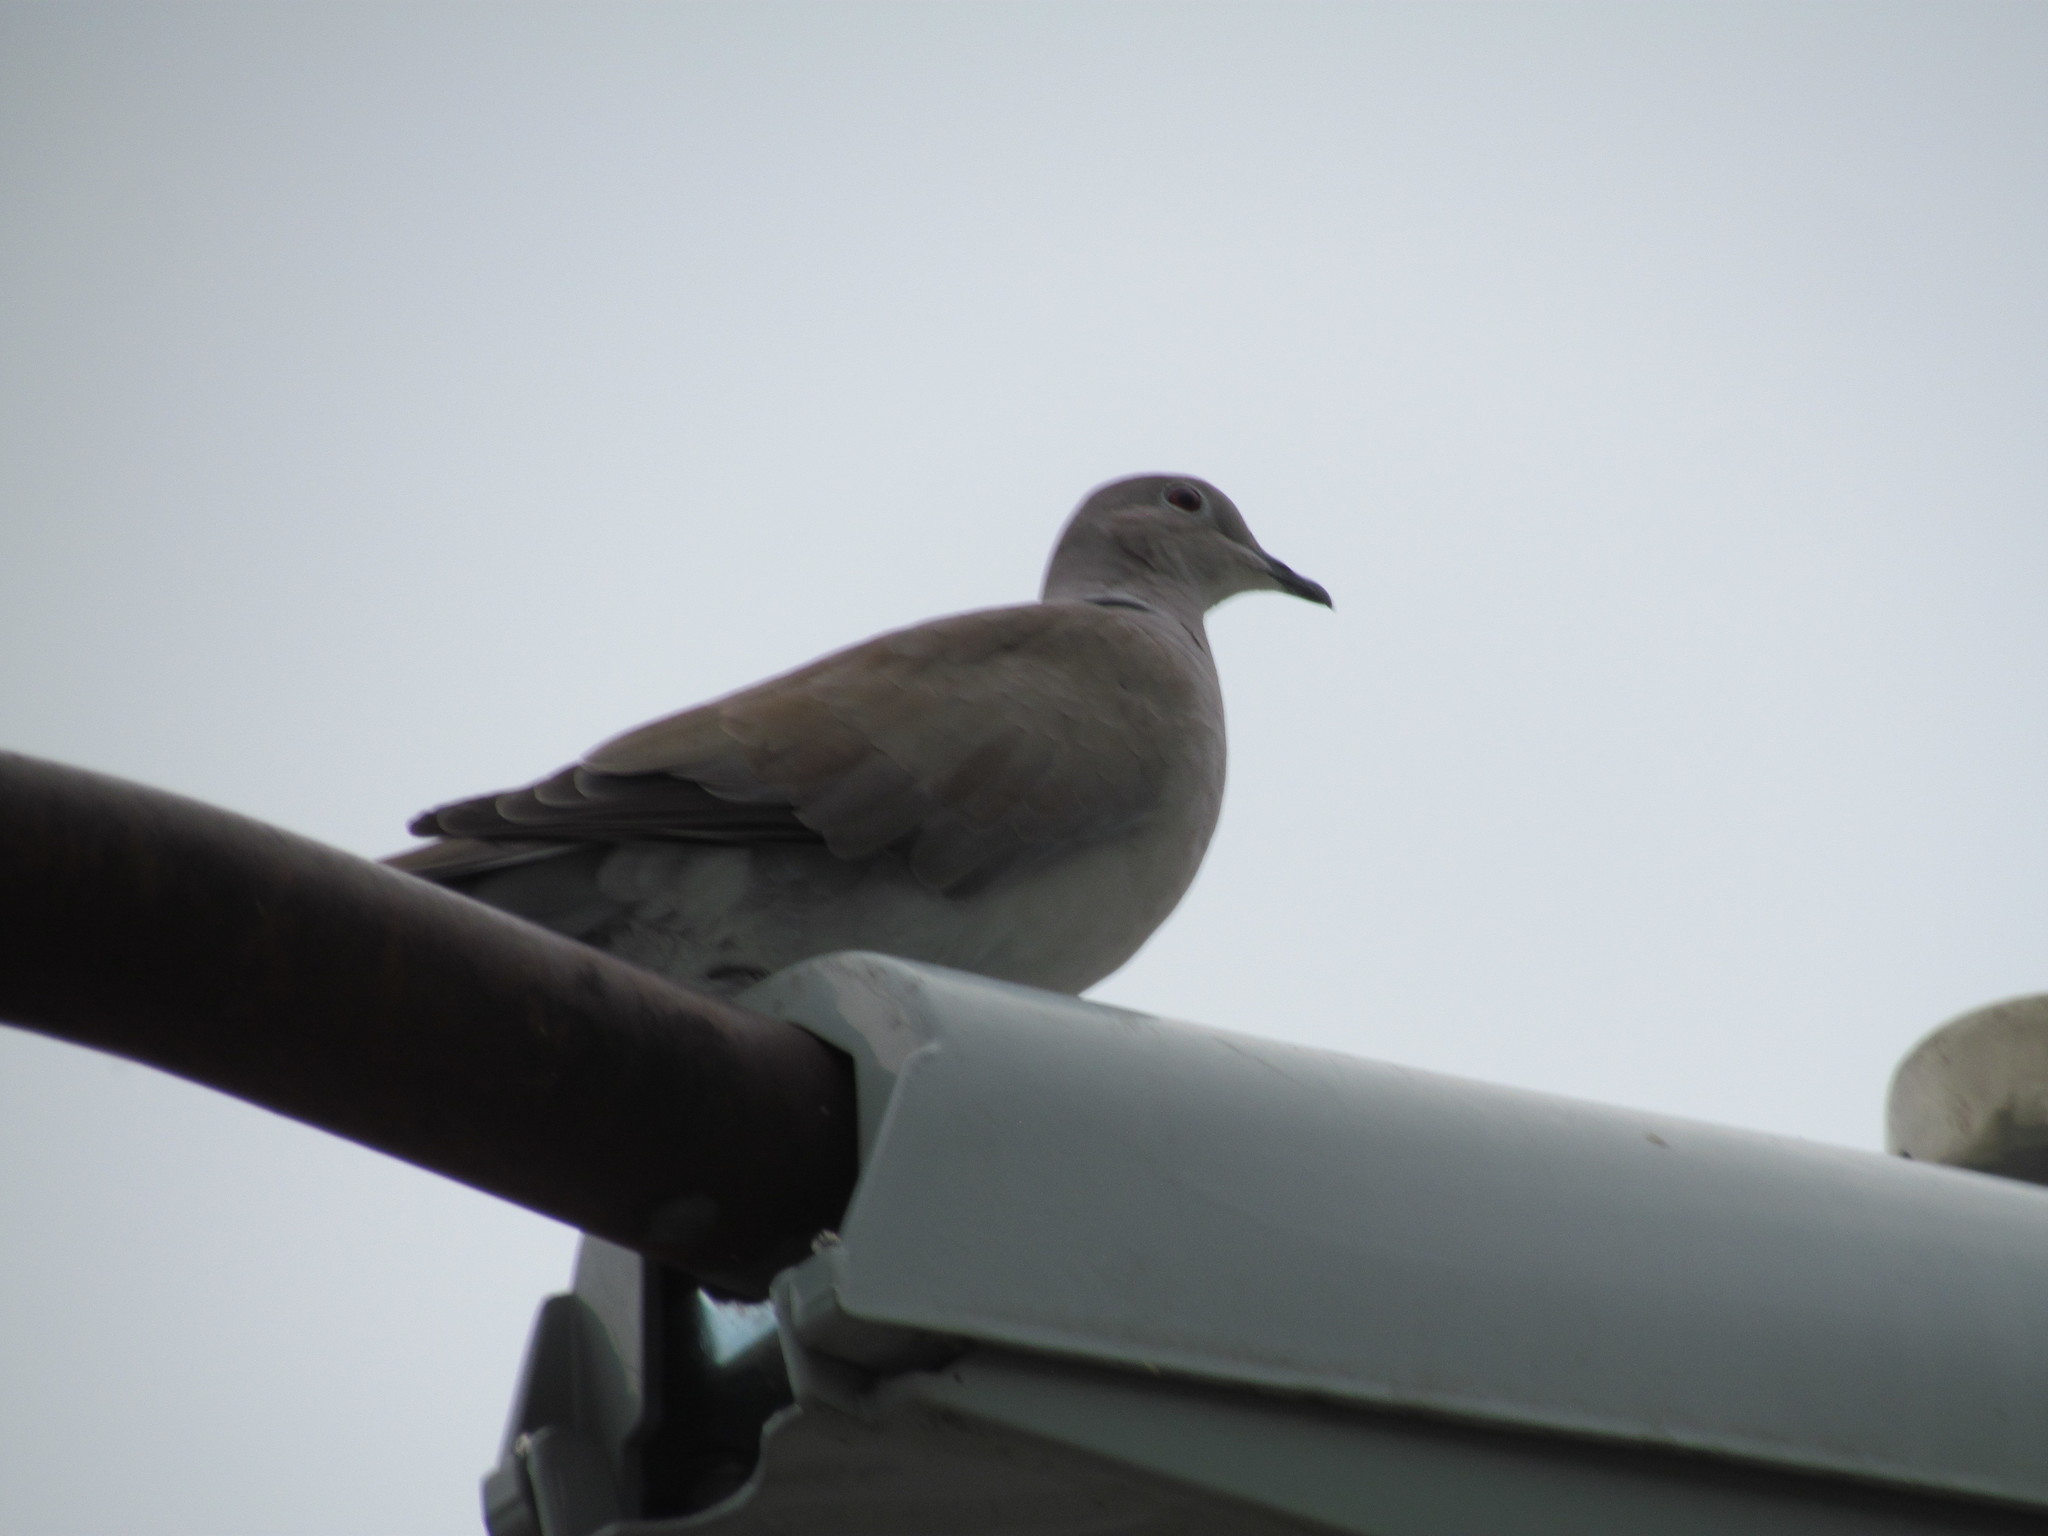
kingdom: Animalia
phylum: Chordata
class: Aves
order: Columbiformes
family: Columbidae
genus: Streptopelia
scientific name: Streptopelia decaocto
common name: Eurasian collared dove
